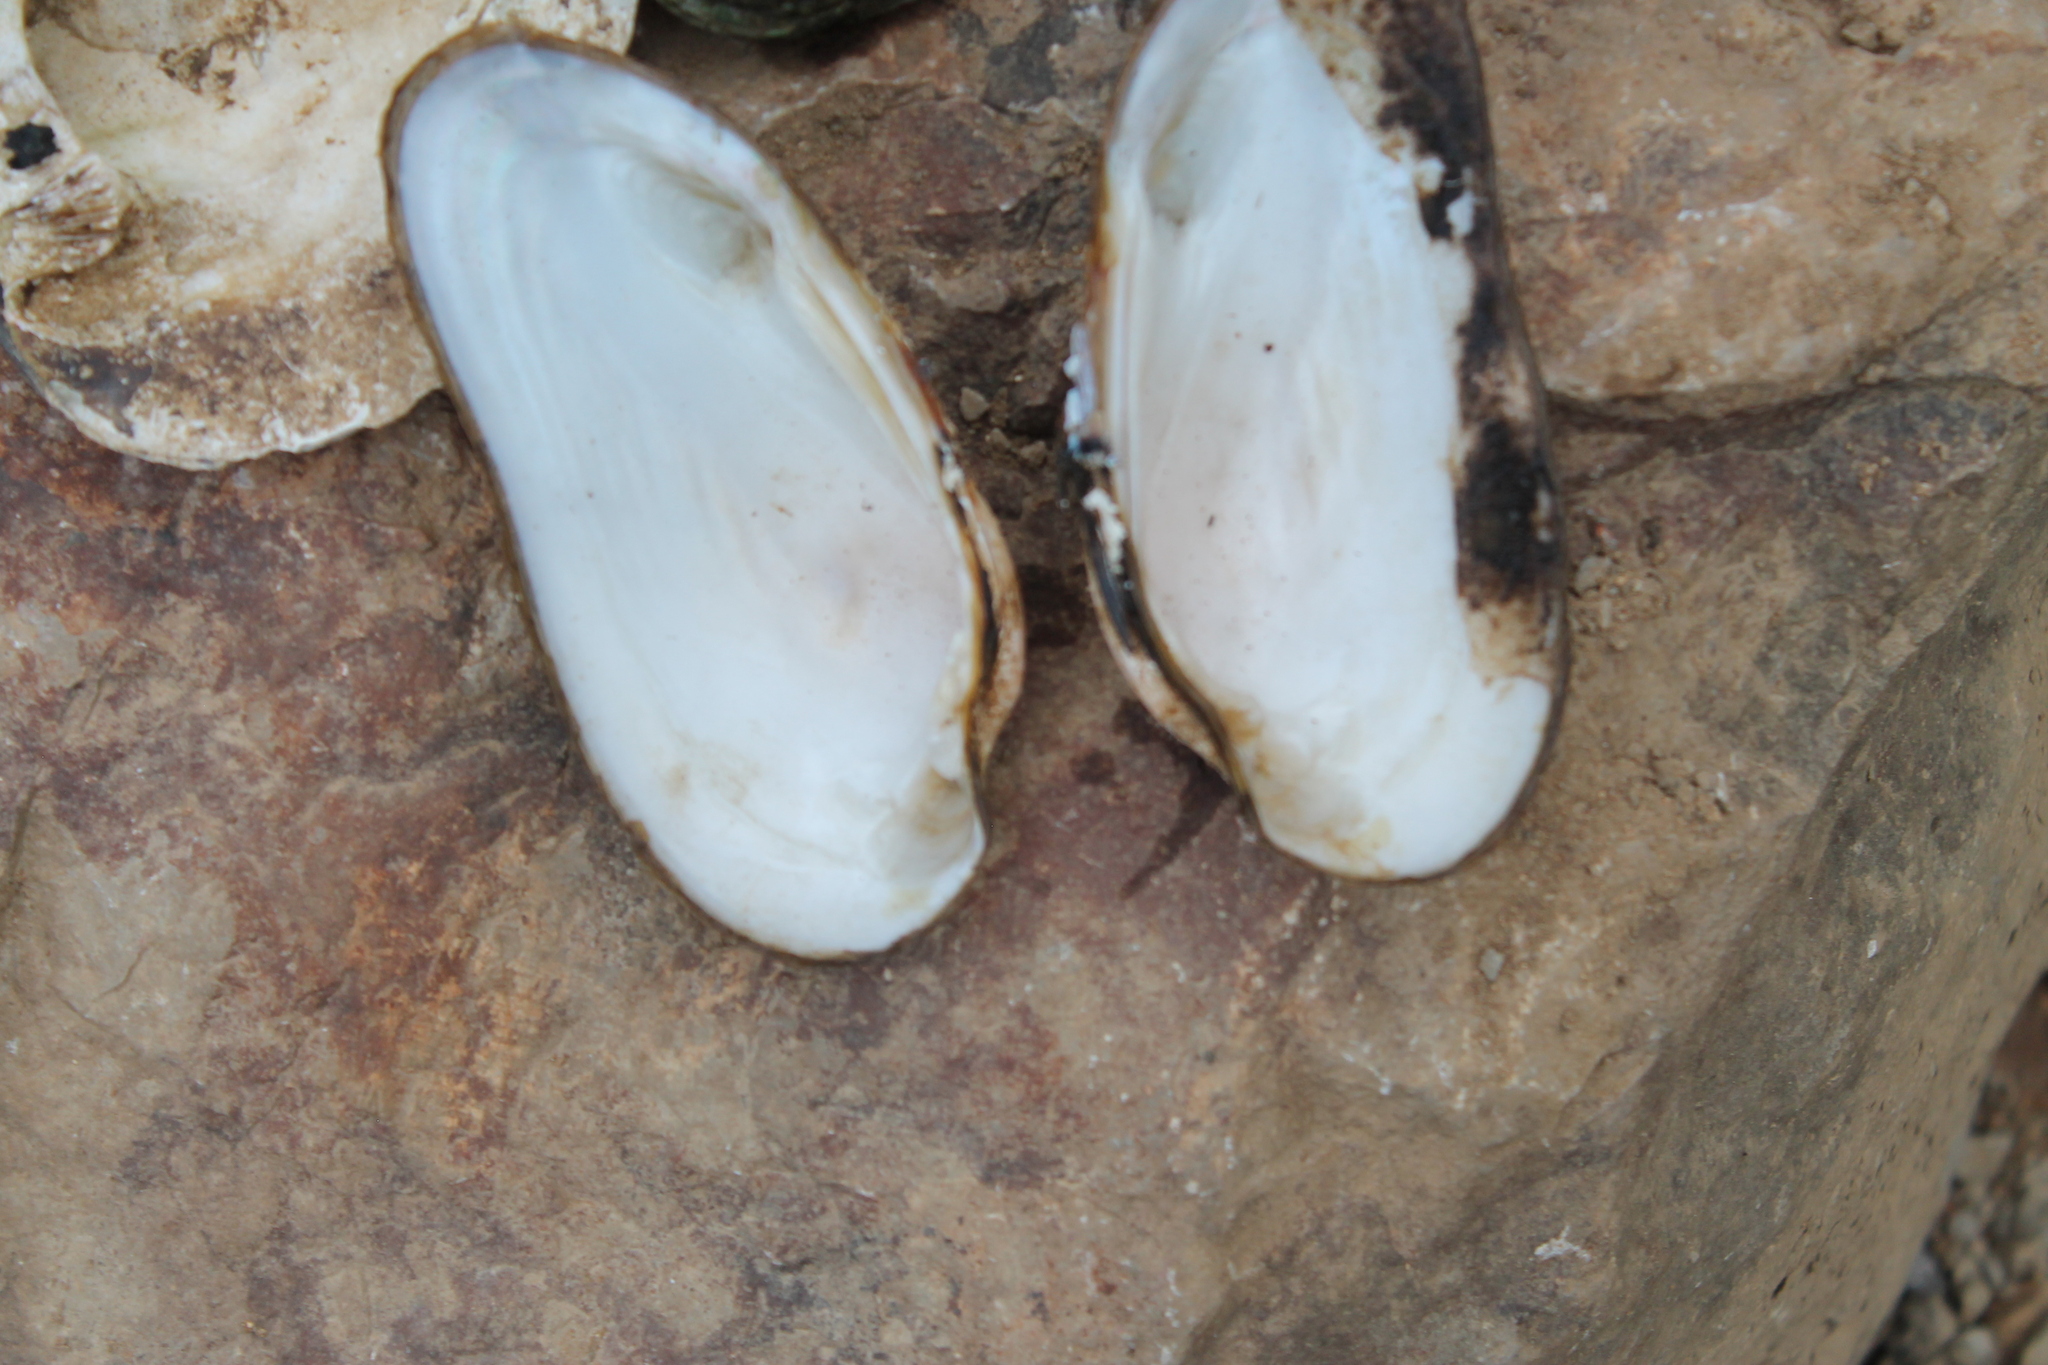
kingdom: Animalia
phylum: Mollusca
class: Bivalvia
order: Unionida
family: Unionidae
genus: Ptychobranchus
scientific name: Ptychobranchus subtentus
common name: Fluted kidneyshell
